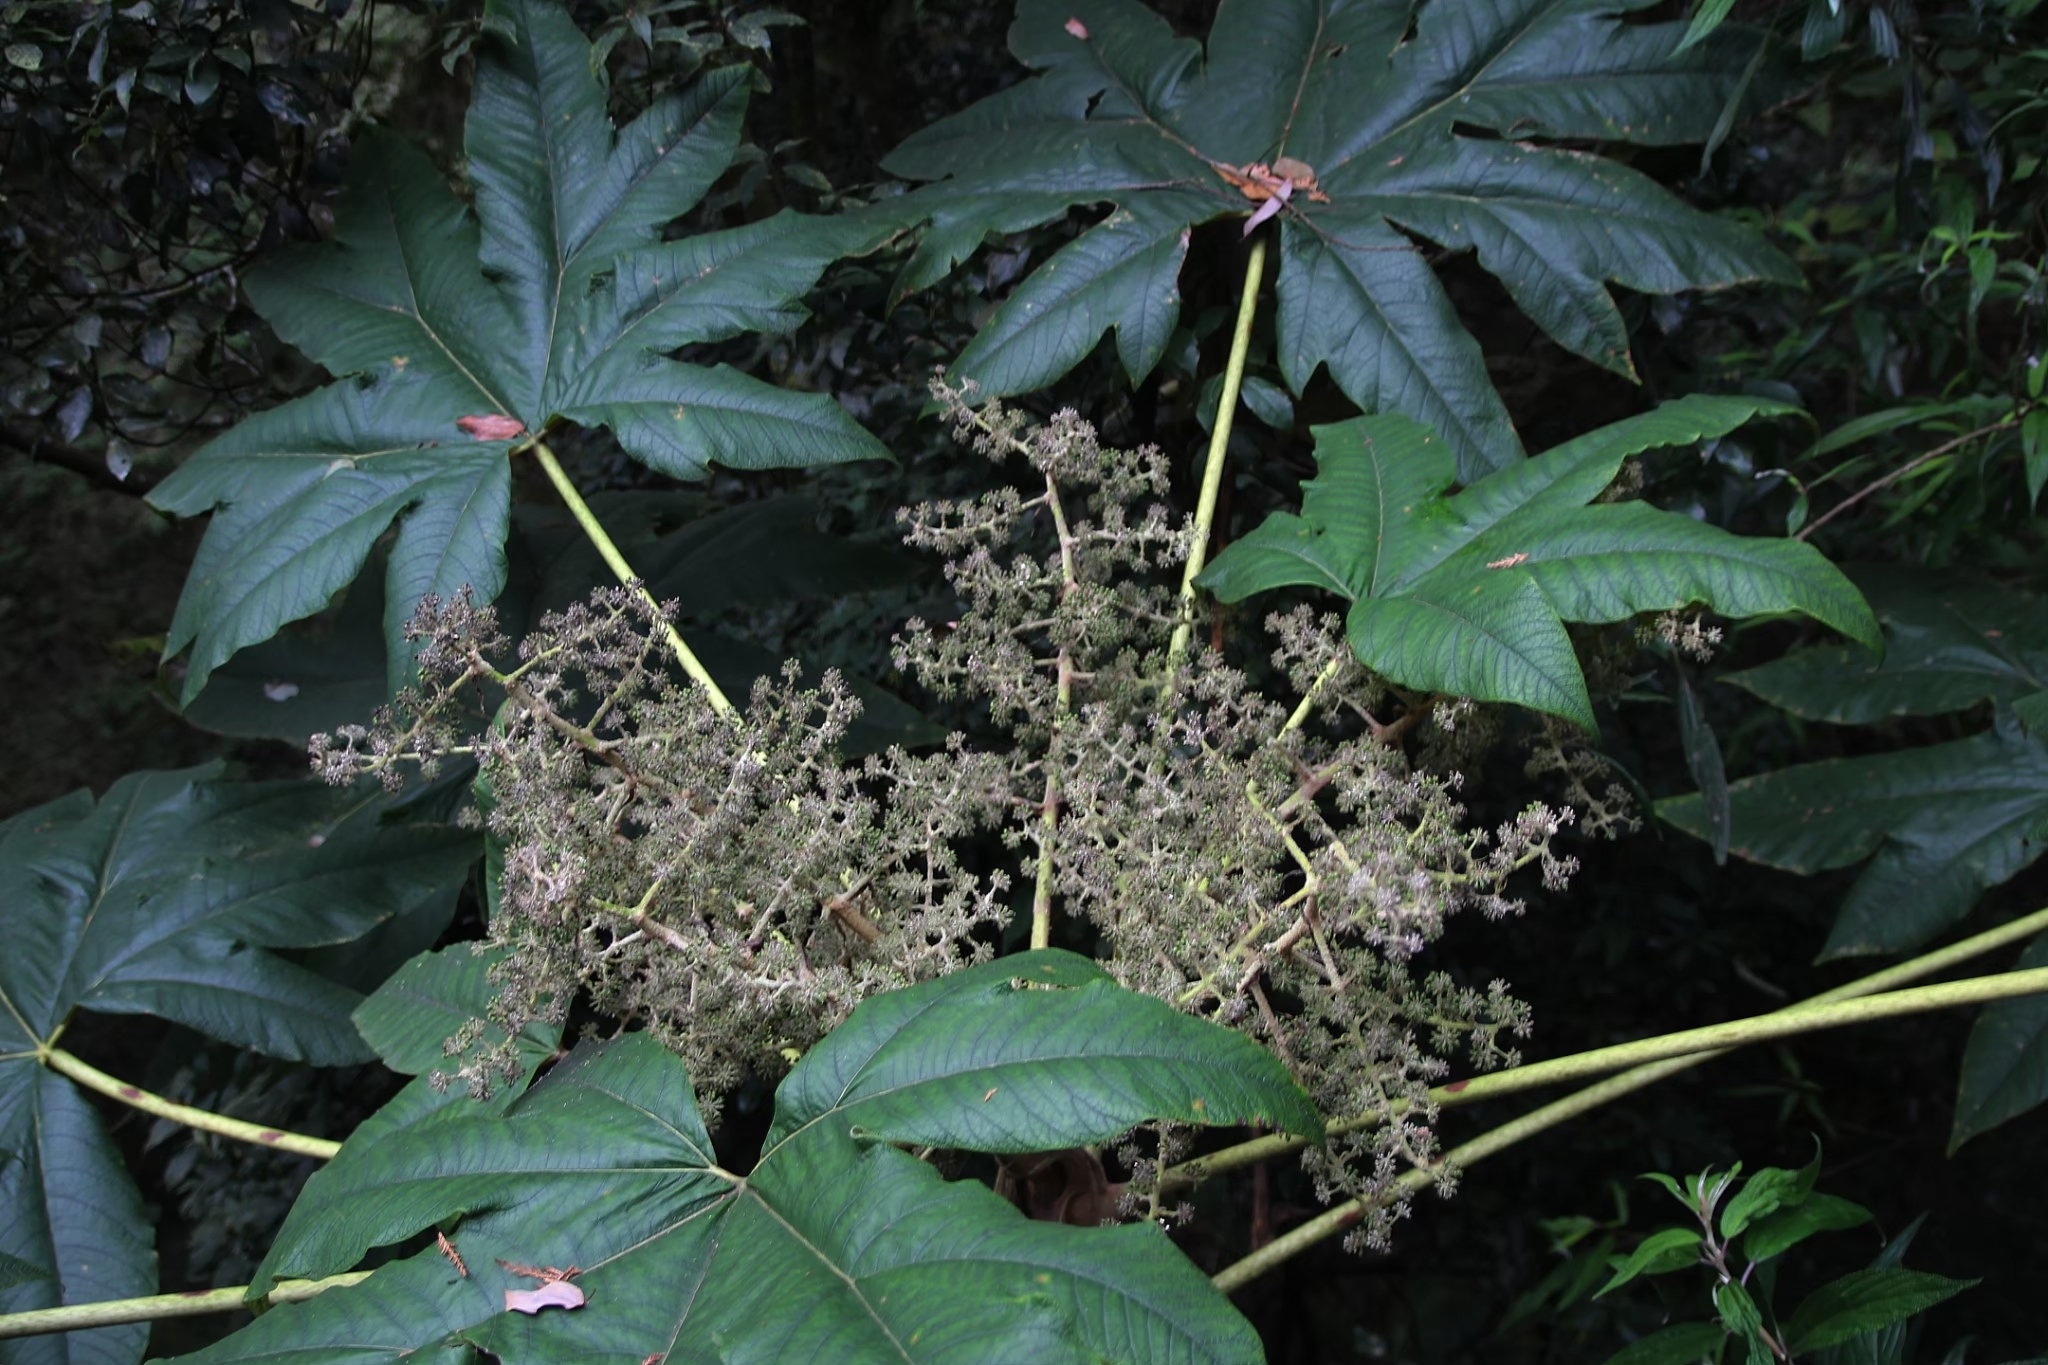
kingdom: Plantae
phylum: Tracheophyta
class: Magnoliopsida
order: Apiales
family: Araliaceae
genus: Tetrapanax
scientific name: Tetrapanax papyrifer
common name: Rice-paper plant
